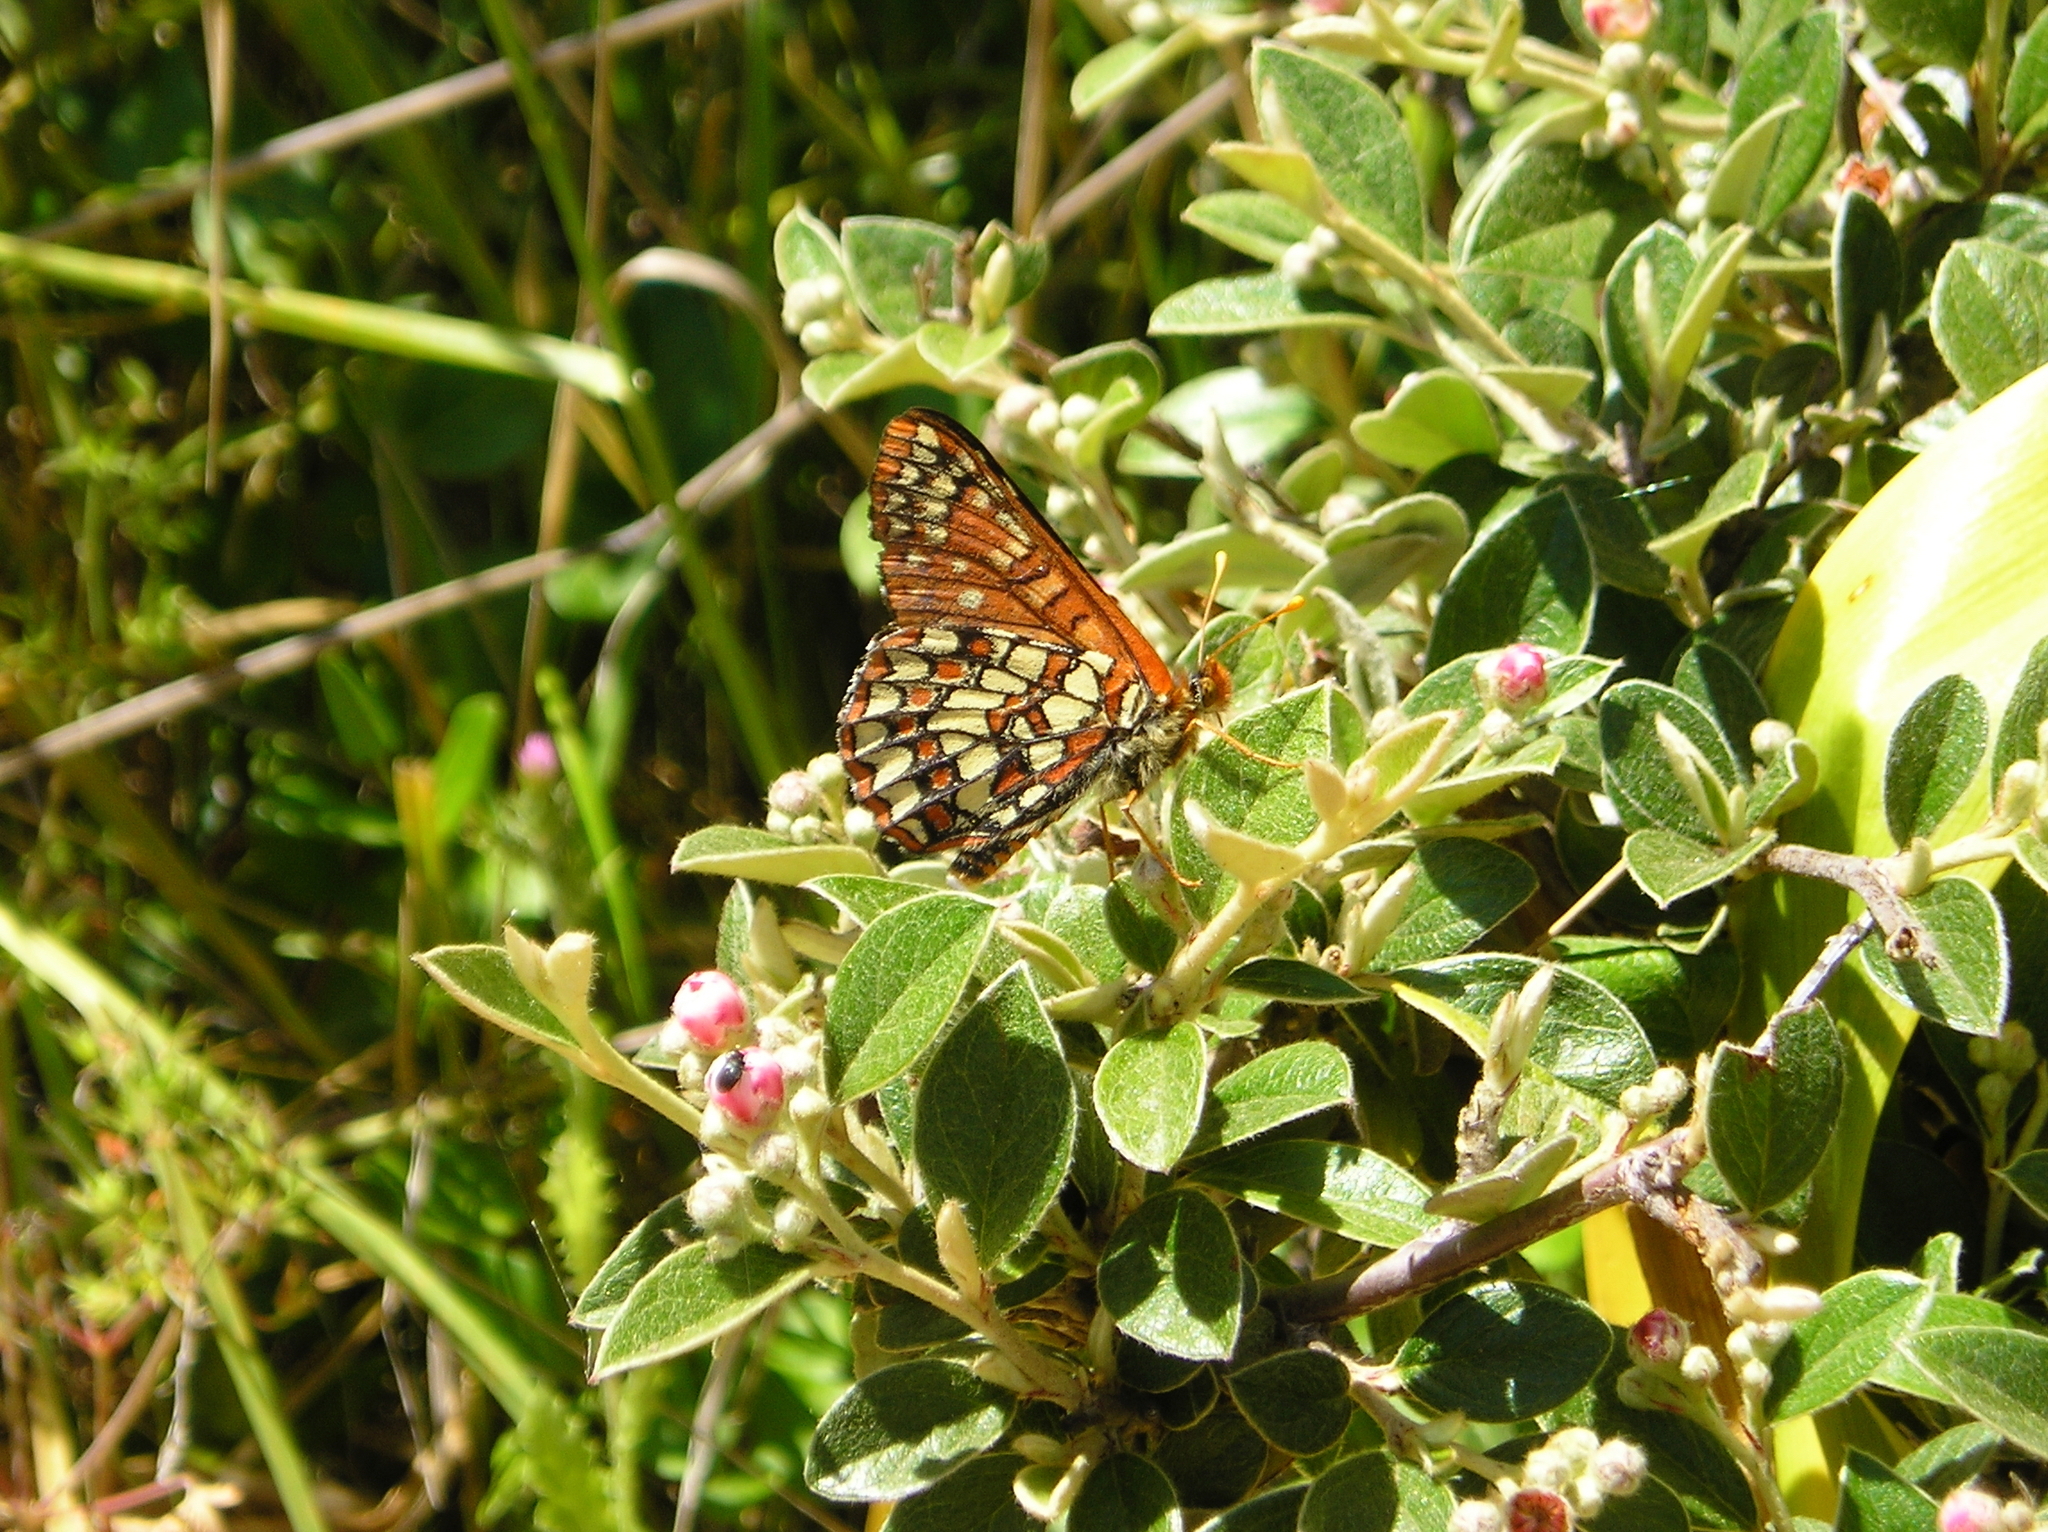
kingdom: Animalia
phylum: Arthropoda
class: Insecta
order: Lepidoptera
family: Nymphalidae
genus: Occidryas
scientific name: Occidryas chalcedona
